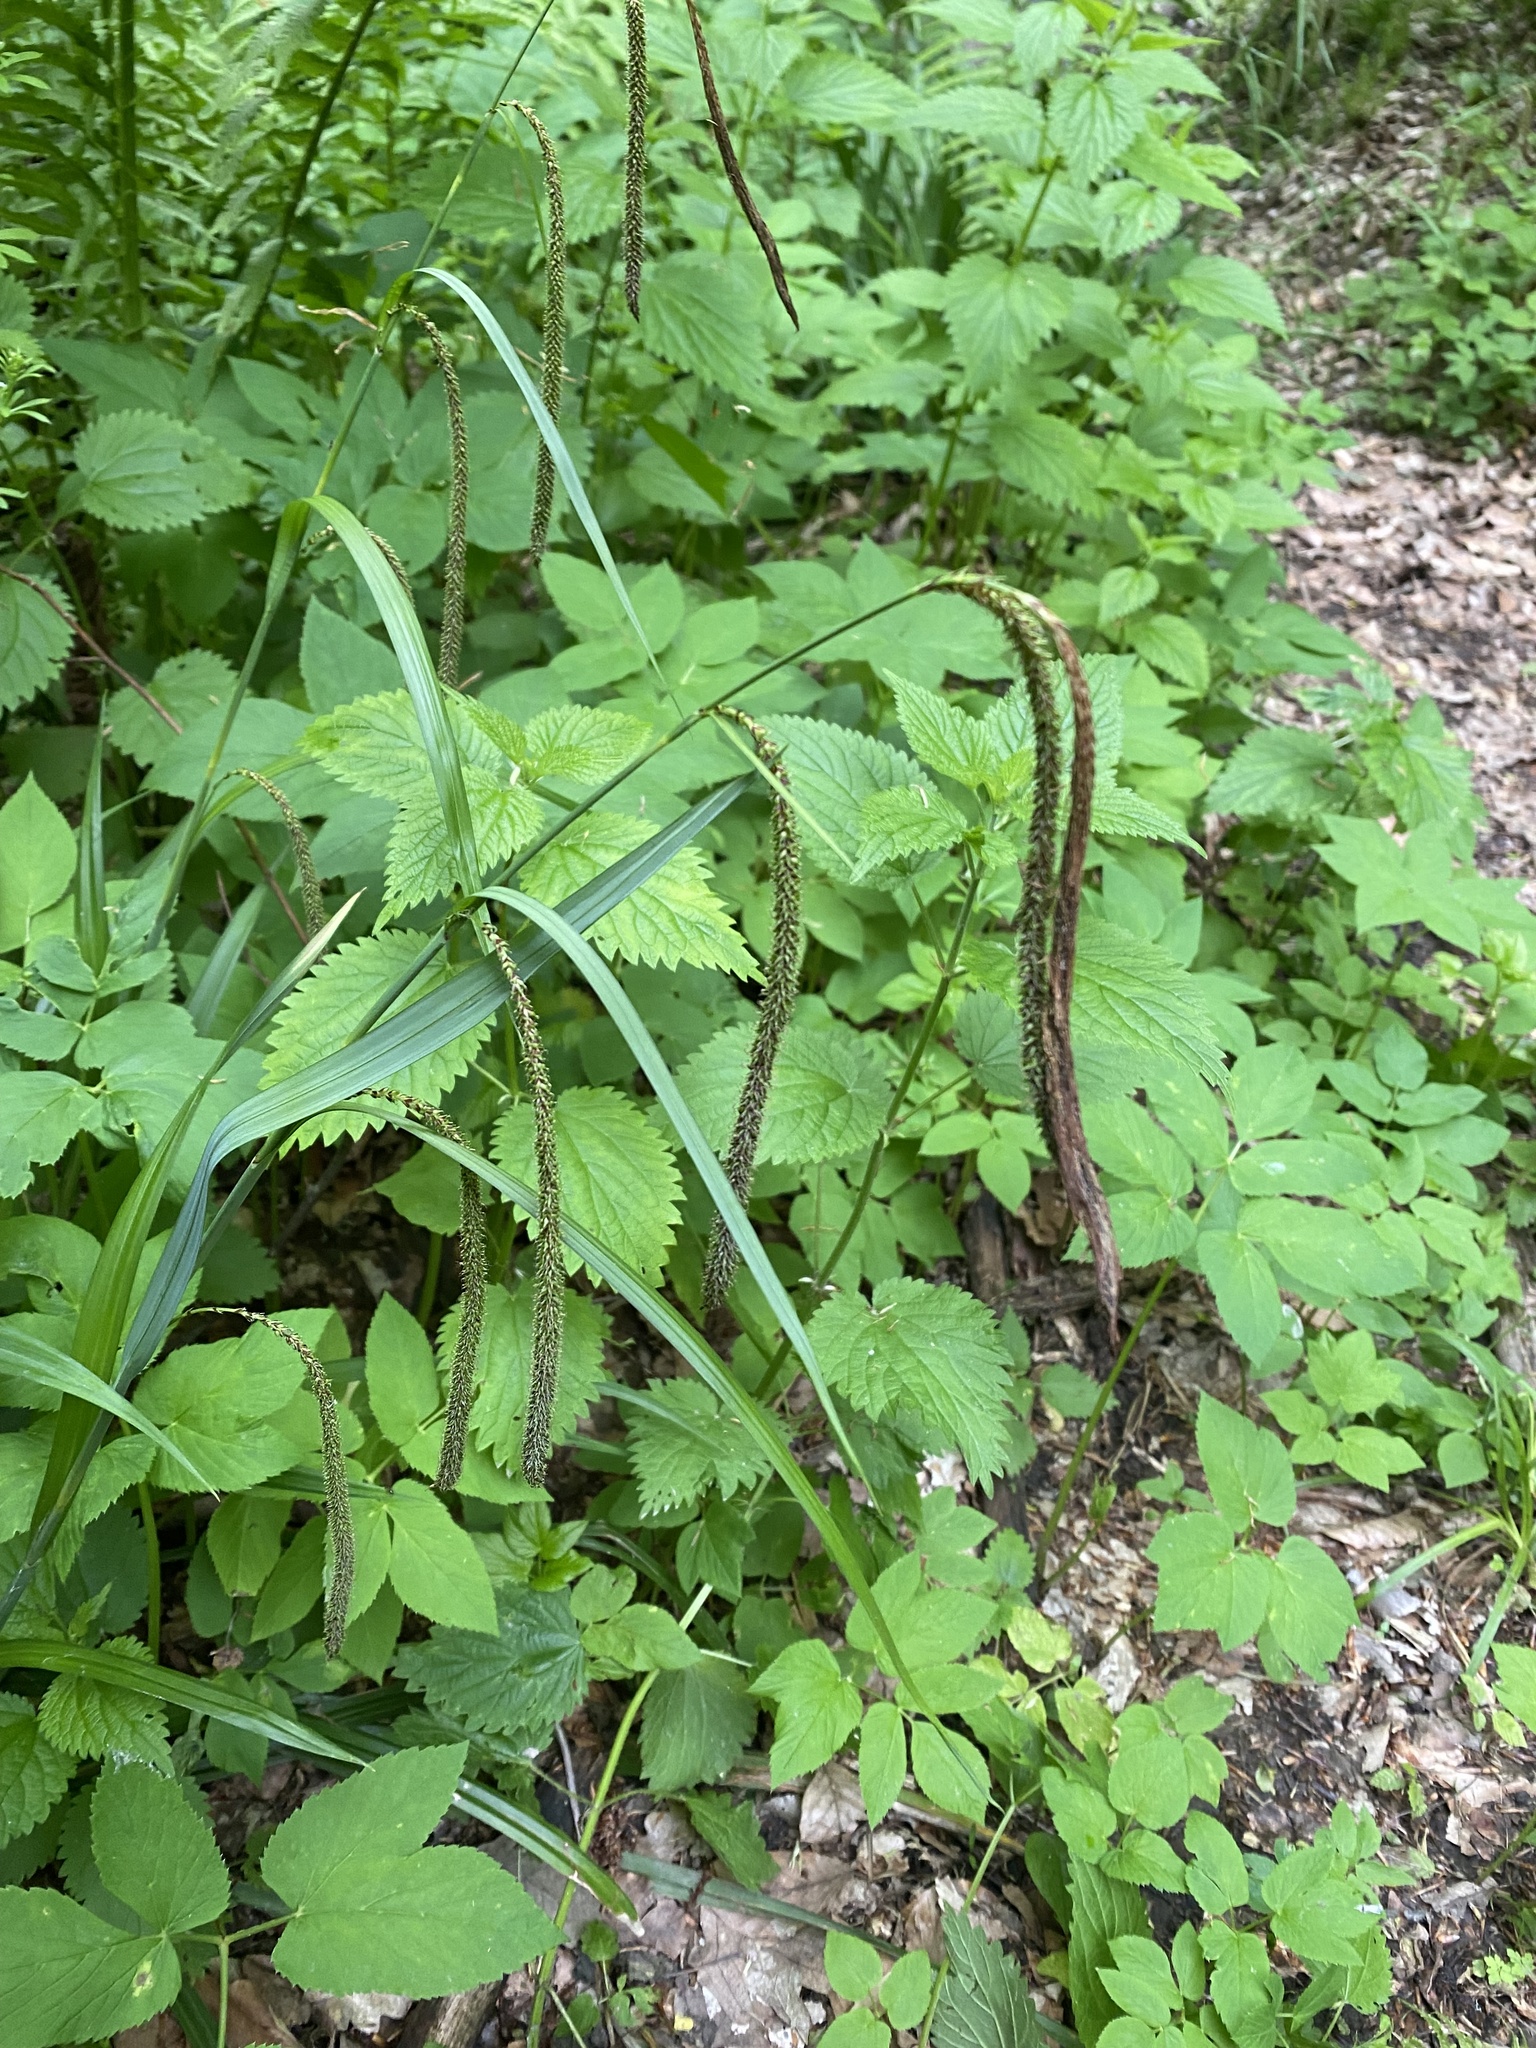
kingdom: Plantae
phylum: Tracheophyta
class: Liliopsida
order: Poales
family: Cyperaceae
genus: Carex
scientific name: Carex pendula
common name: Pendulous sedge
